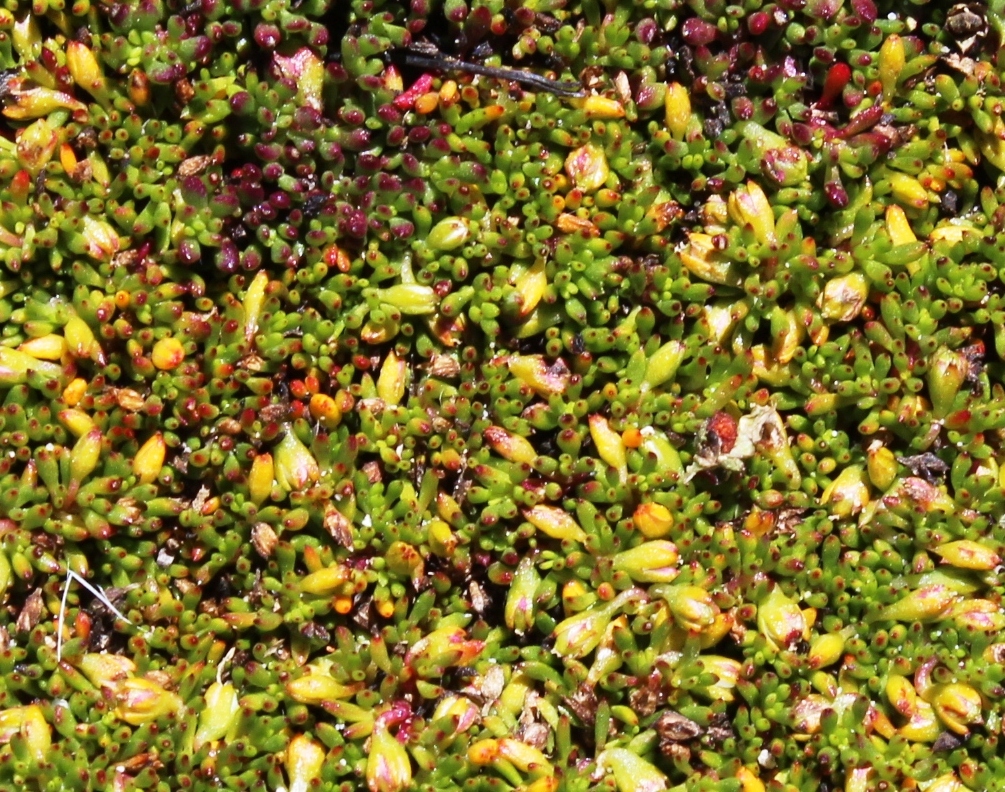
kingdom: Plantae
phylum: Tracheophyta
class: Magnoliopsida
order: Caryophyllales
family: Aizoaceae
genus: Acrosanthes
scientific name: Acrosanthes parviflora
